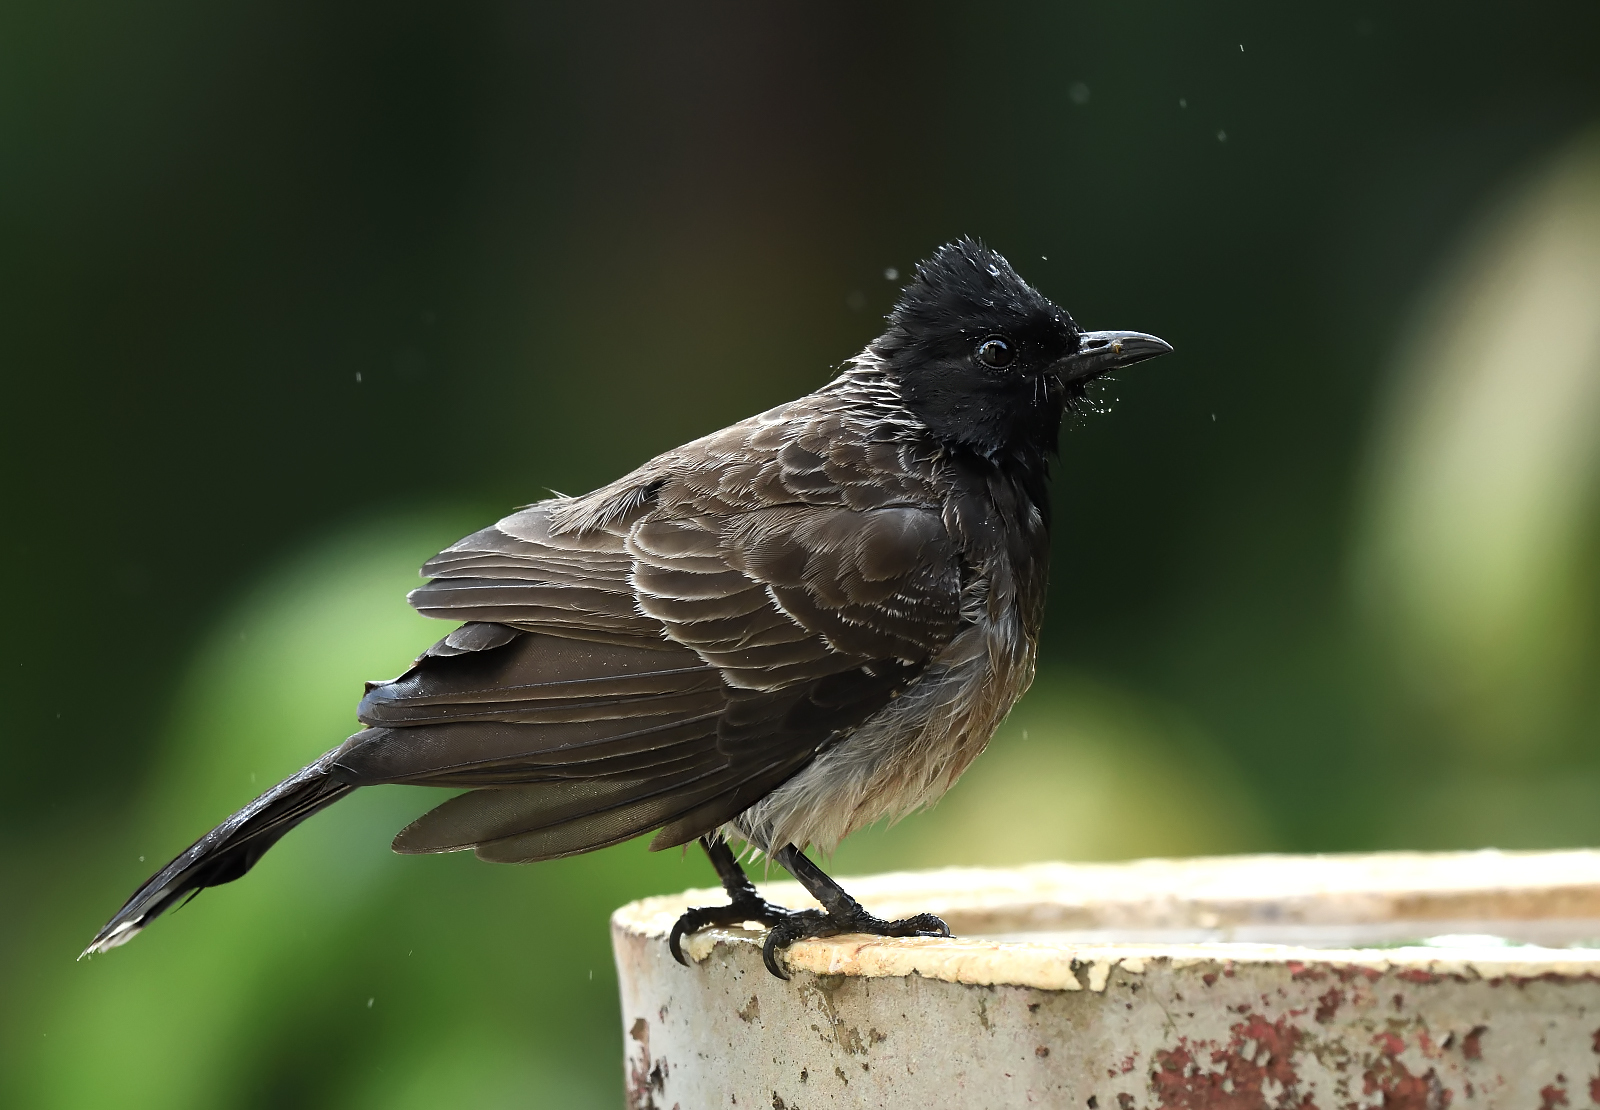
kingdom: Animalia
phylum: Chordata
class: Aves
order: Passeriformes
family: Pycnonotidae
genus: Pycnonotus
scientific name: Pycnonotus cafer
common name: Red-vented bulbul
